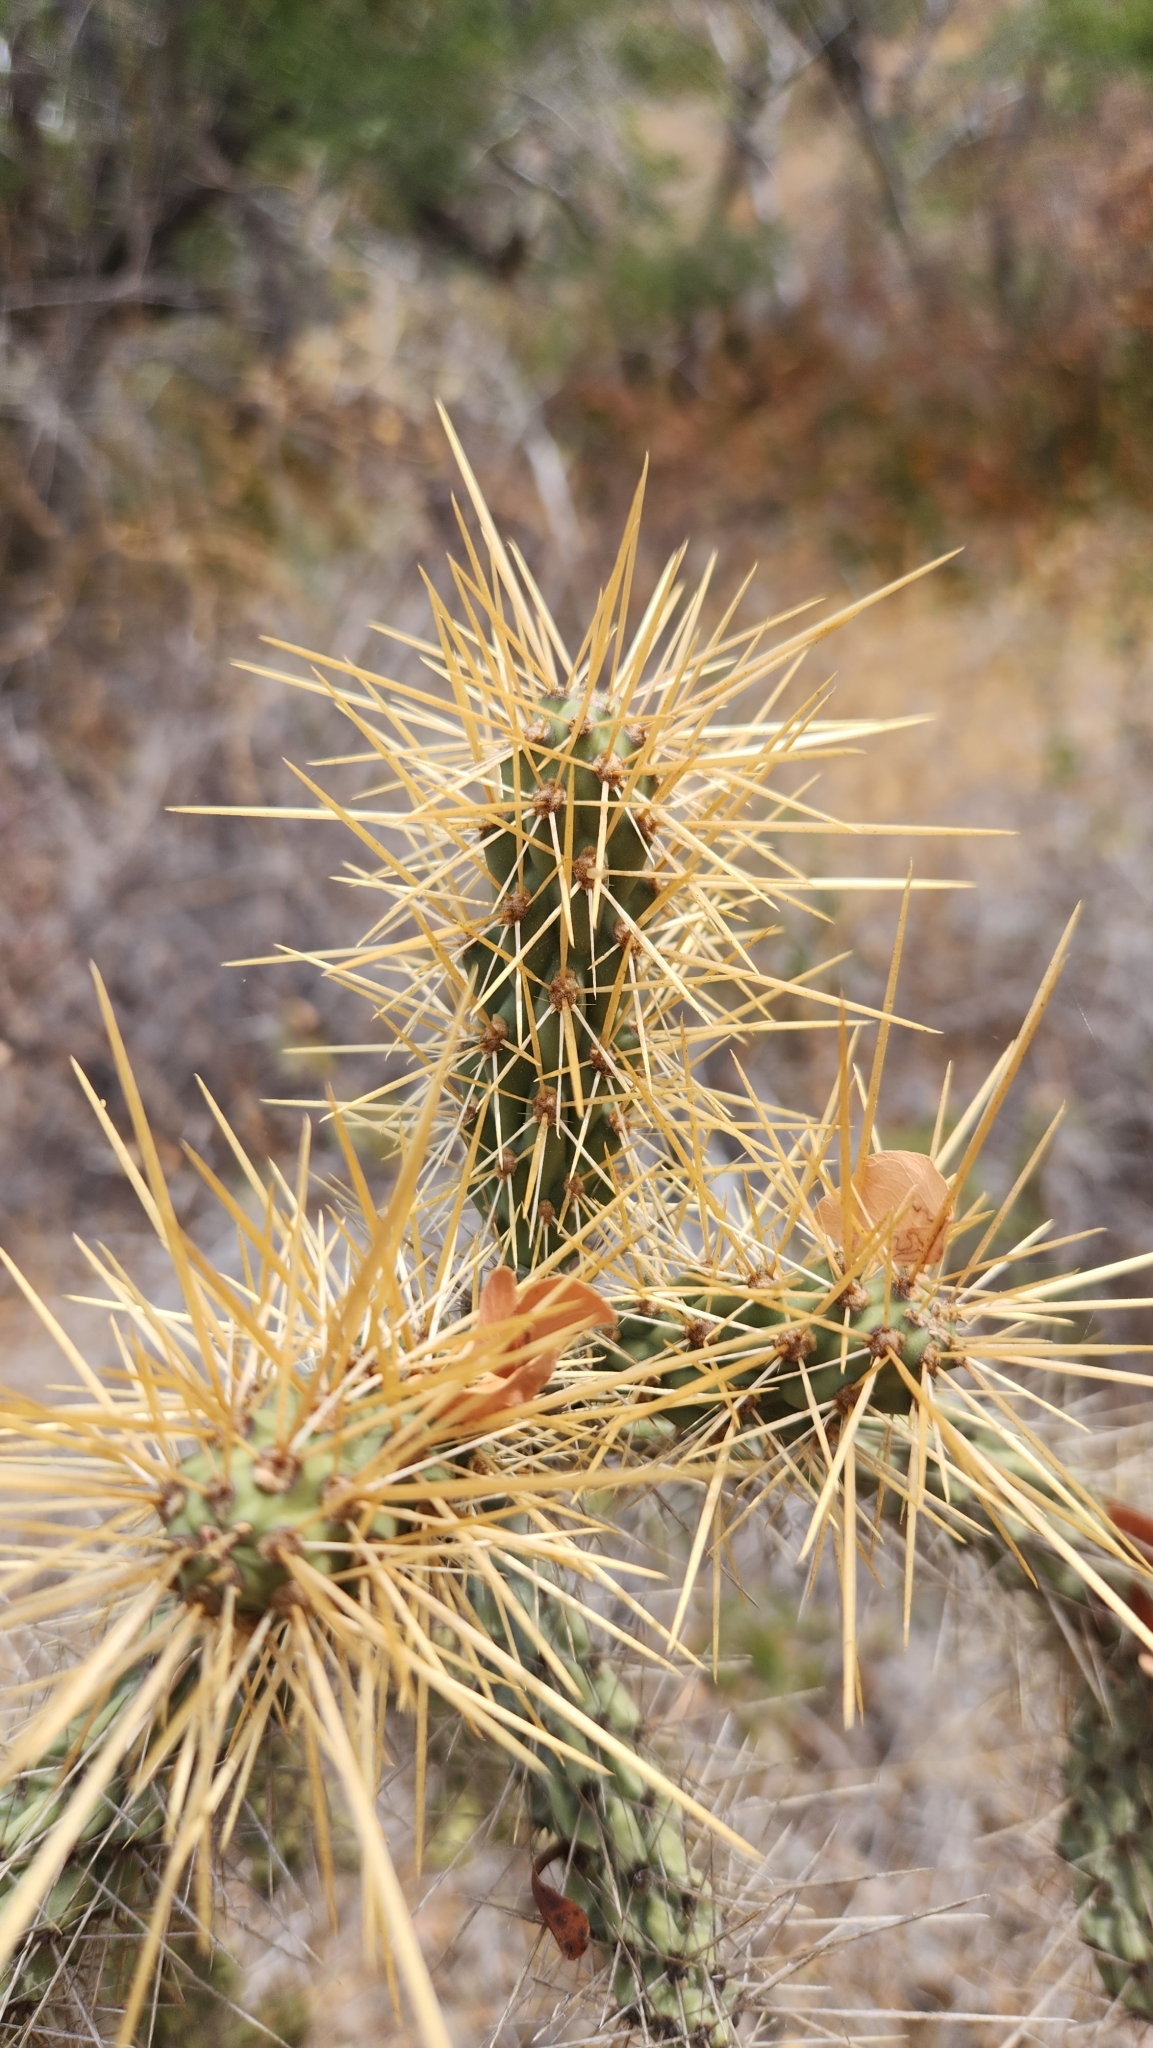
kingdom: Plantae
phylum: Tracheophyta
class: Magnoliopsida
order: Caryophyllales
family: Cactaceae
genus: Cylindropuntia
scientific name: Cylindropuntia alcahes
